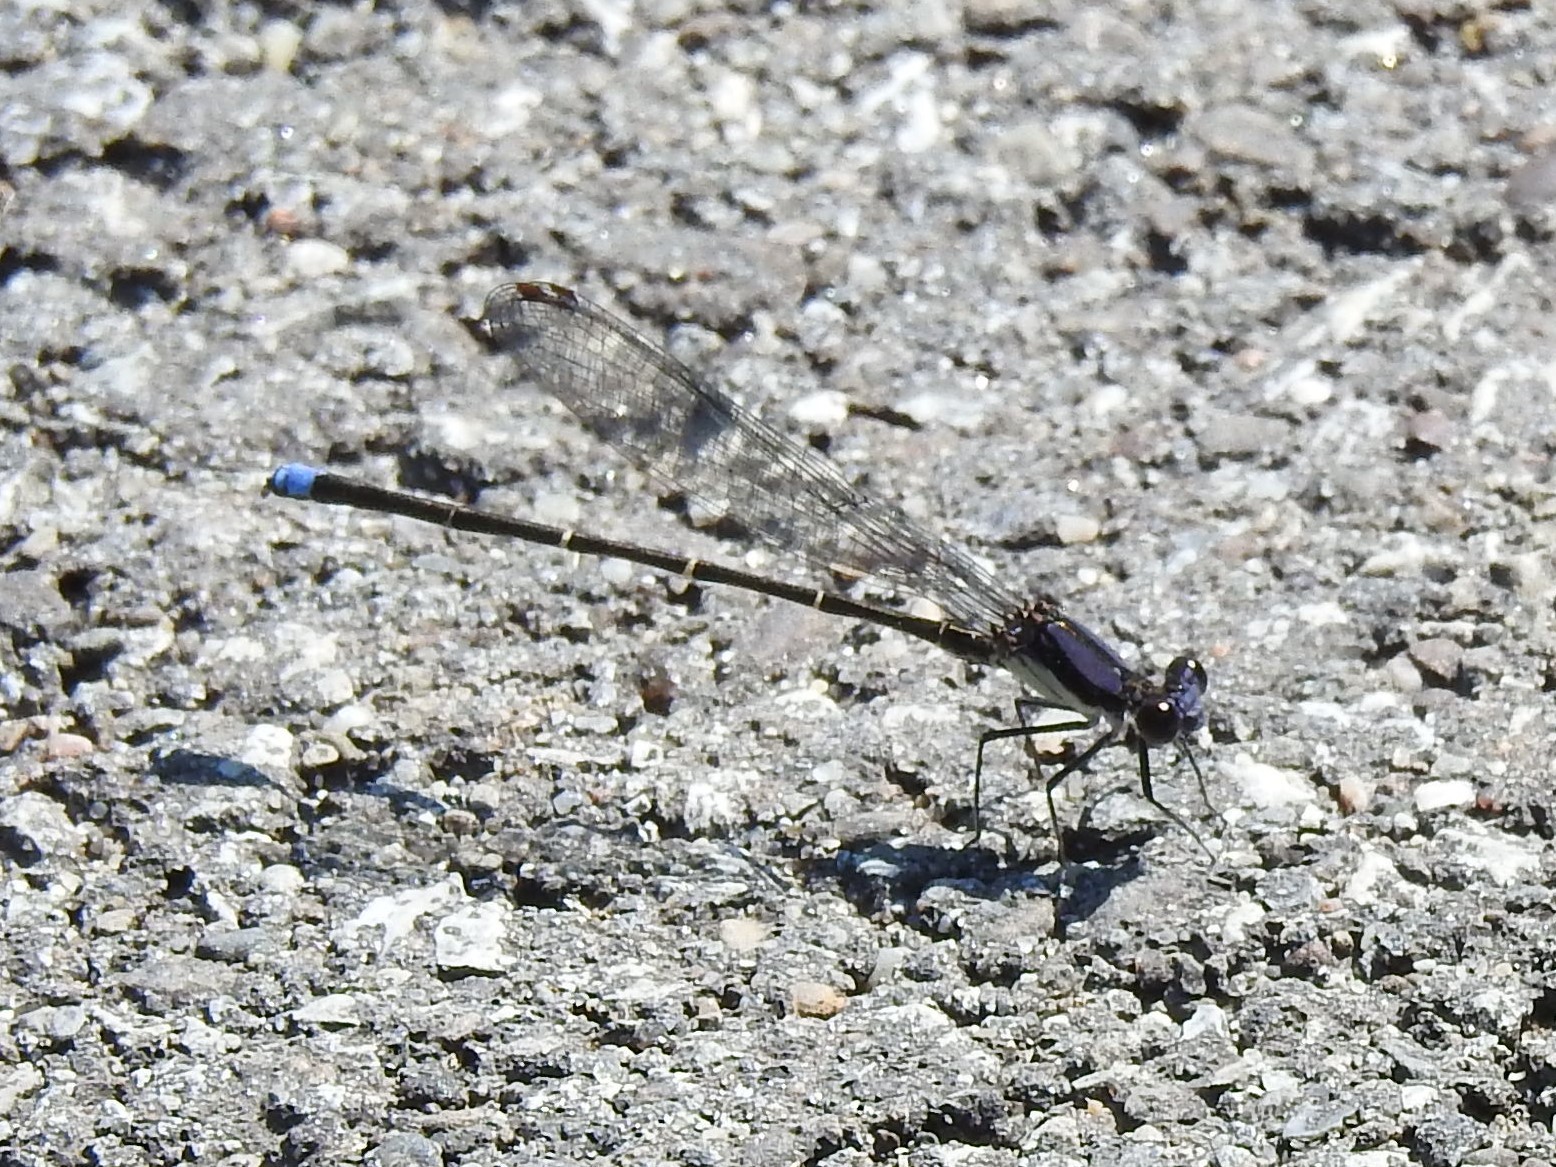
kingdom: Animalia
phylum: Arthropoda
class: Insecta
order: Odonata
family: Coenagrionidae
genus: Argia
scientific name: Argia tibialis
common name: Blue-tipped dancer
